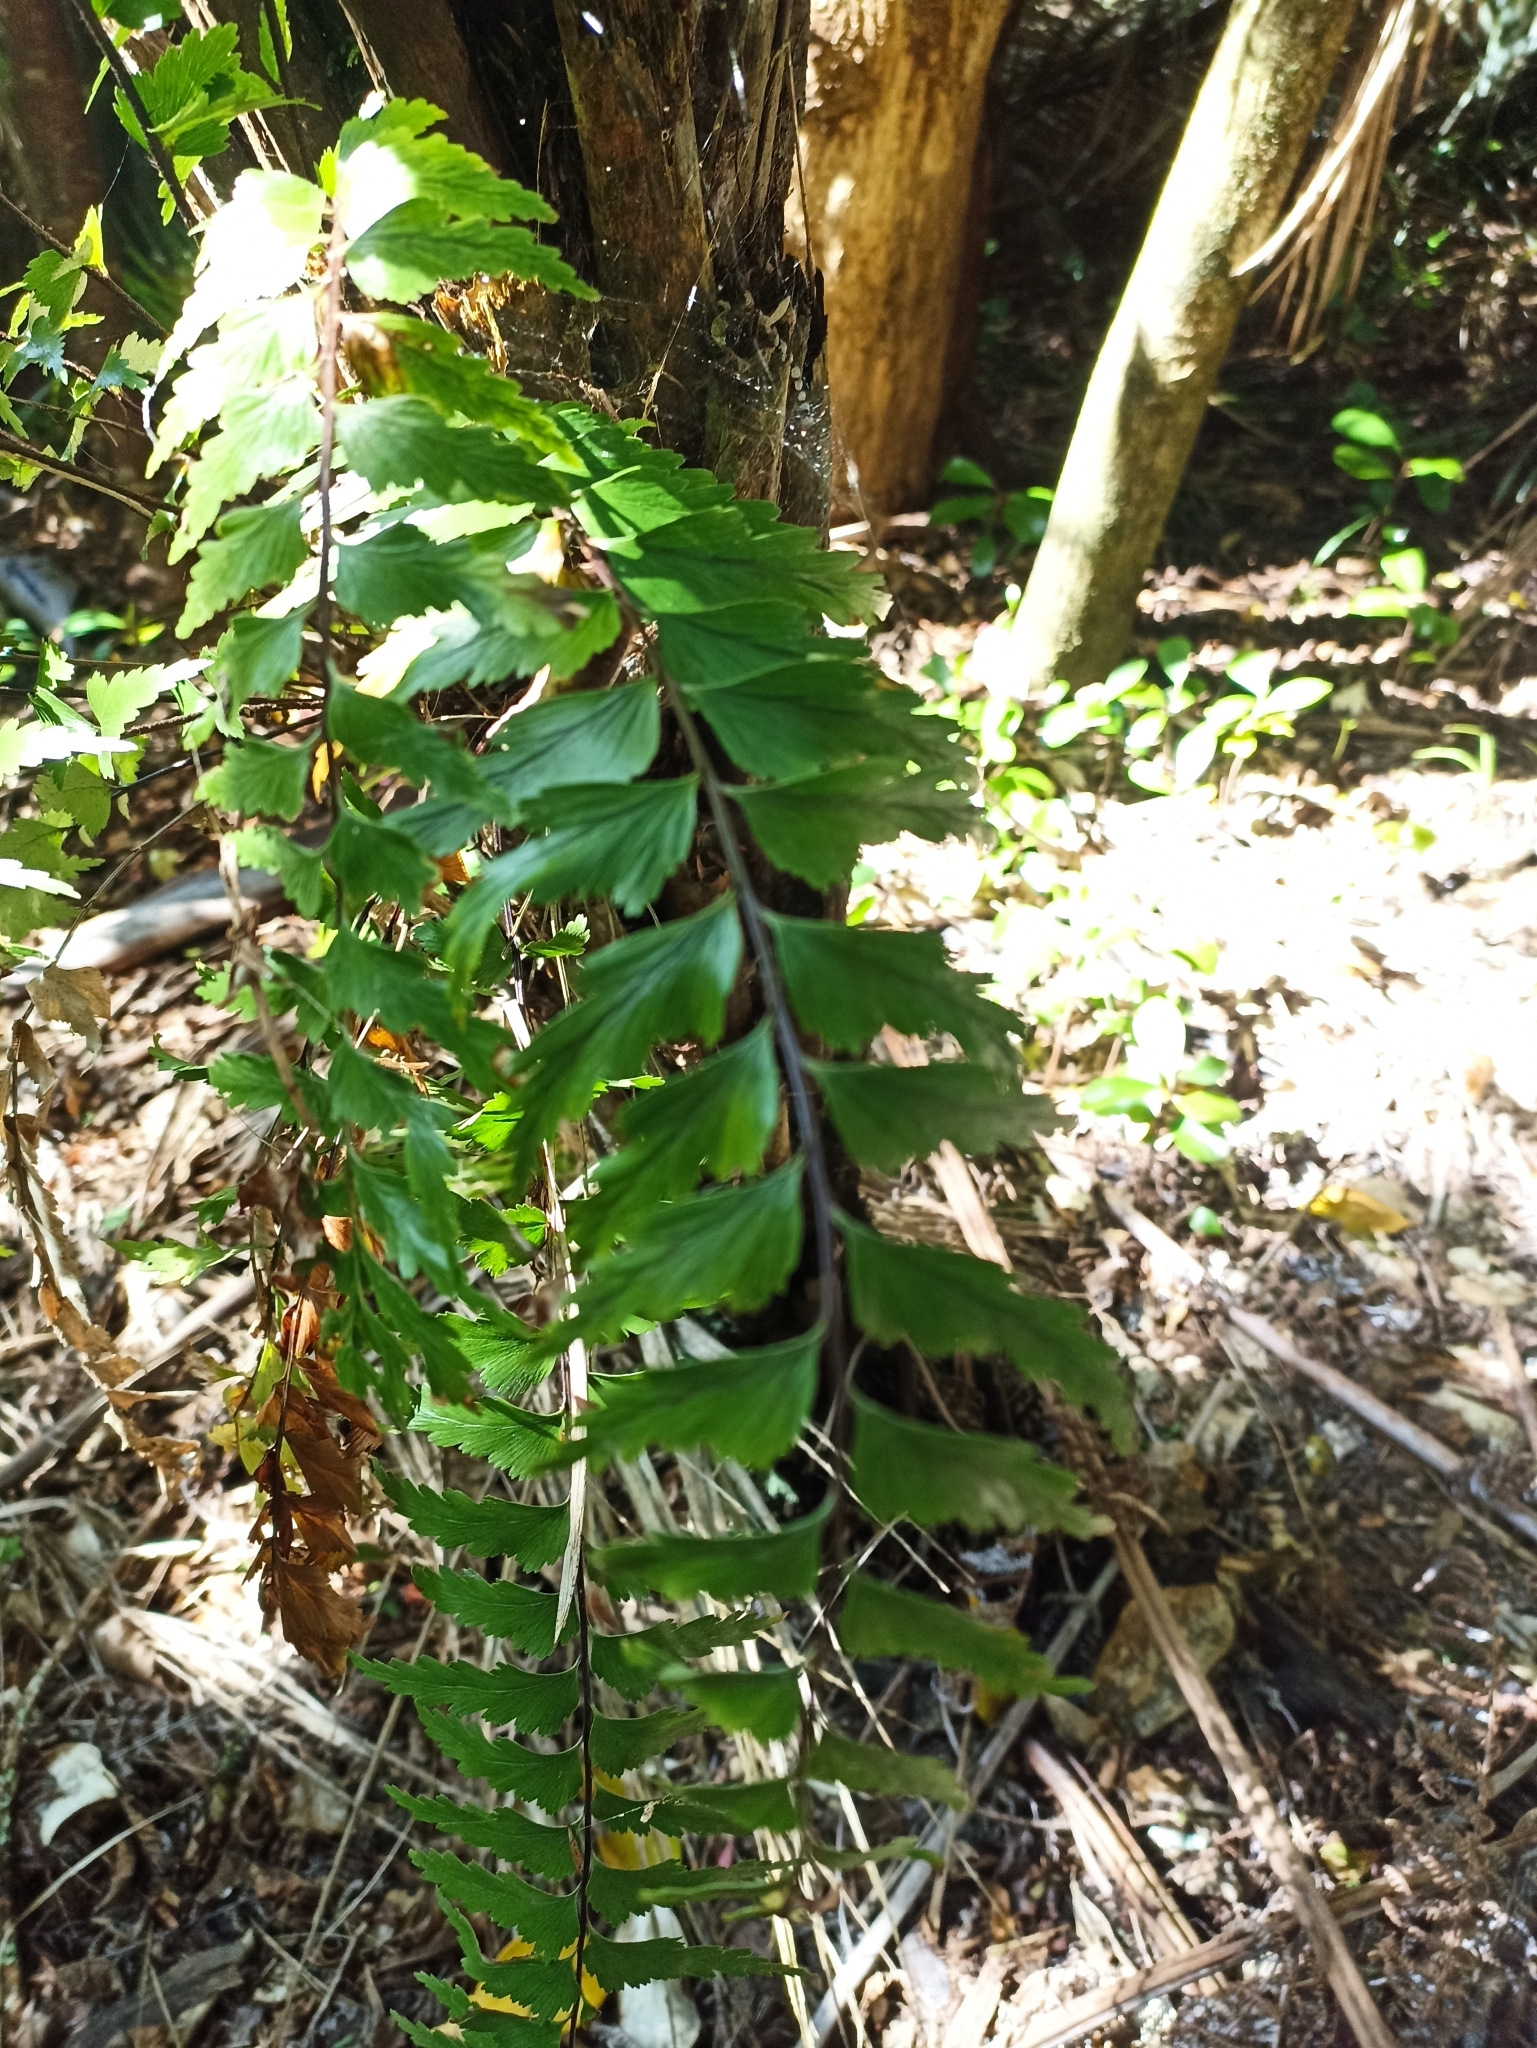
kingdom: Plantae
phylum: Tracheophyta
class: Polypodiopsida
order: Polypodiales
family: Aspleniaceae
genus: Asplenium
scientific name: Asplenium polyodon
